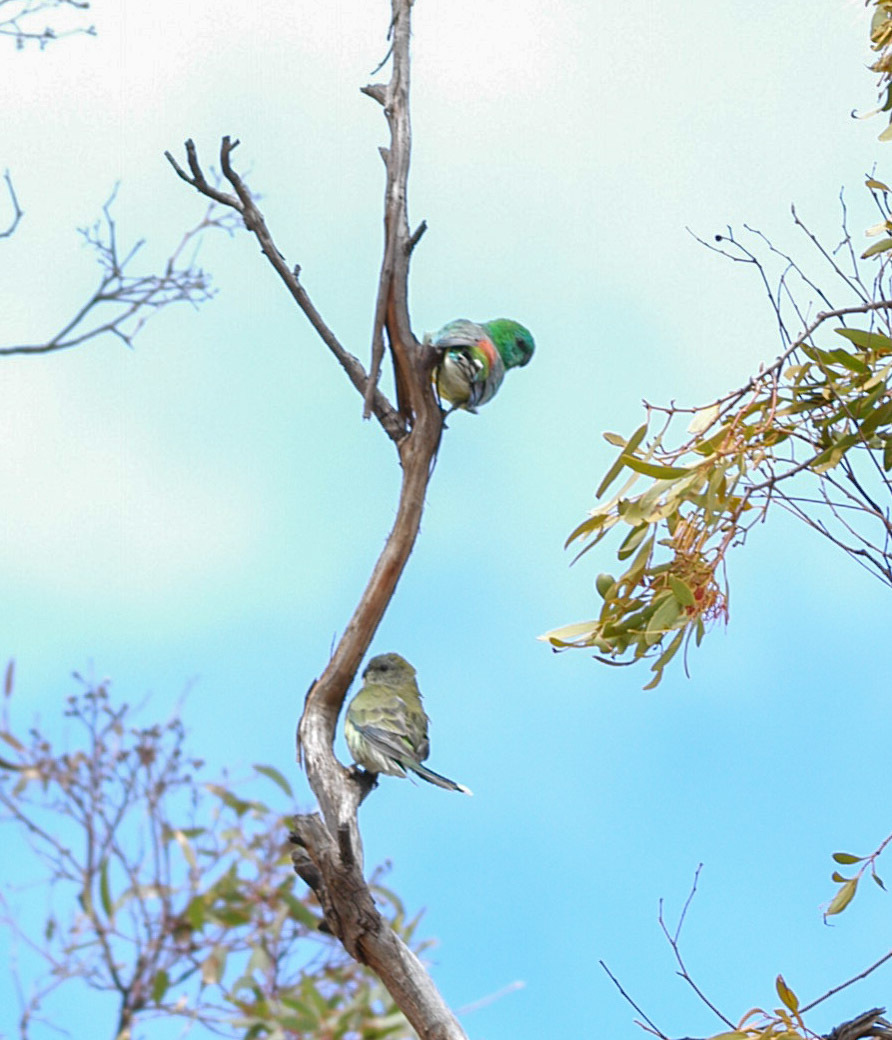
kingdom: Animalia
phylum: Chordata
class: Aves
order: Psittaciformes
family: Psittacidae
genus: Psephotus
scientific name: Psephotus haematonotus
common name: Red-rumped parrot
